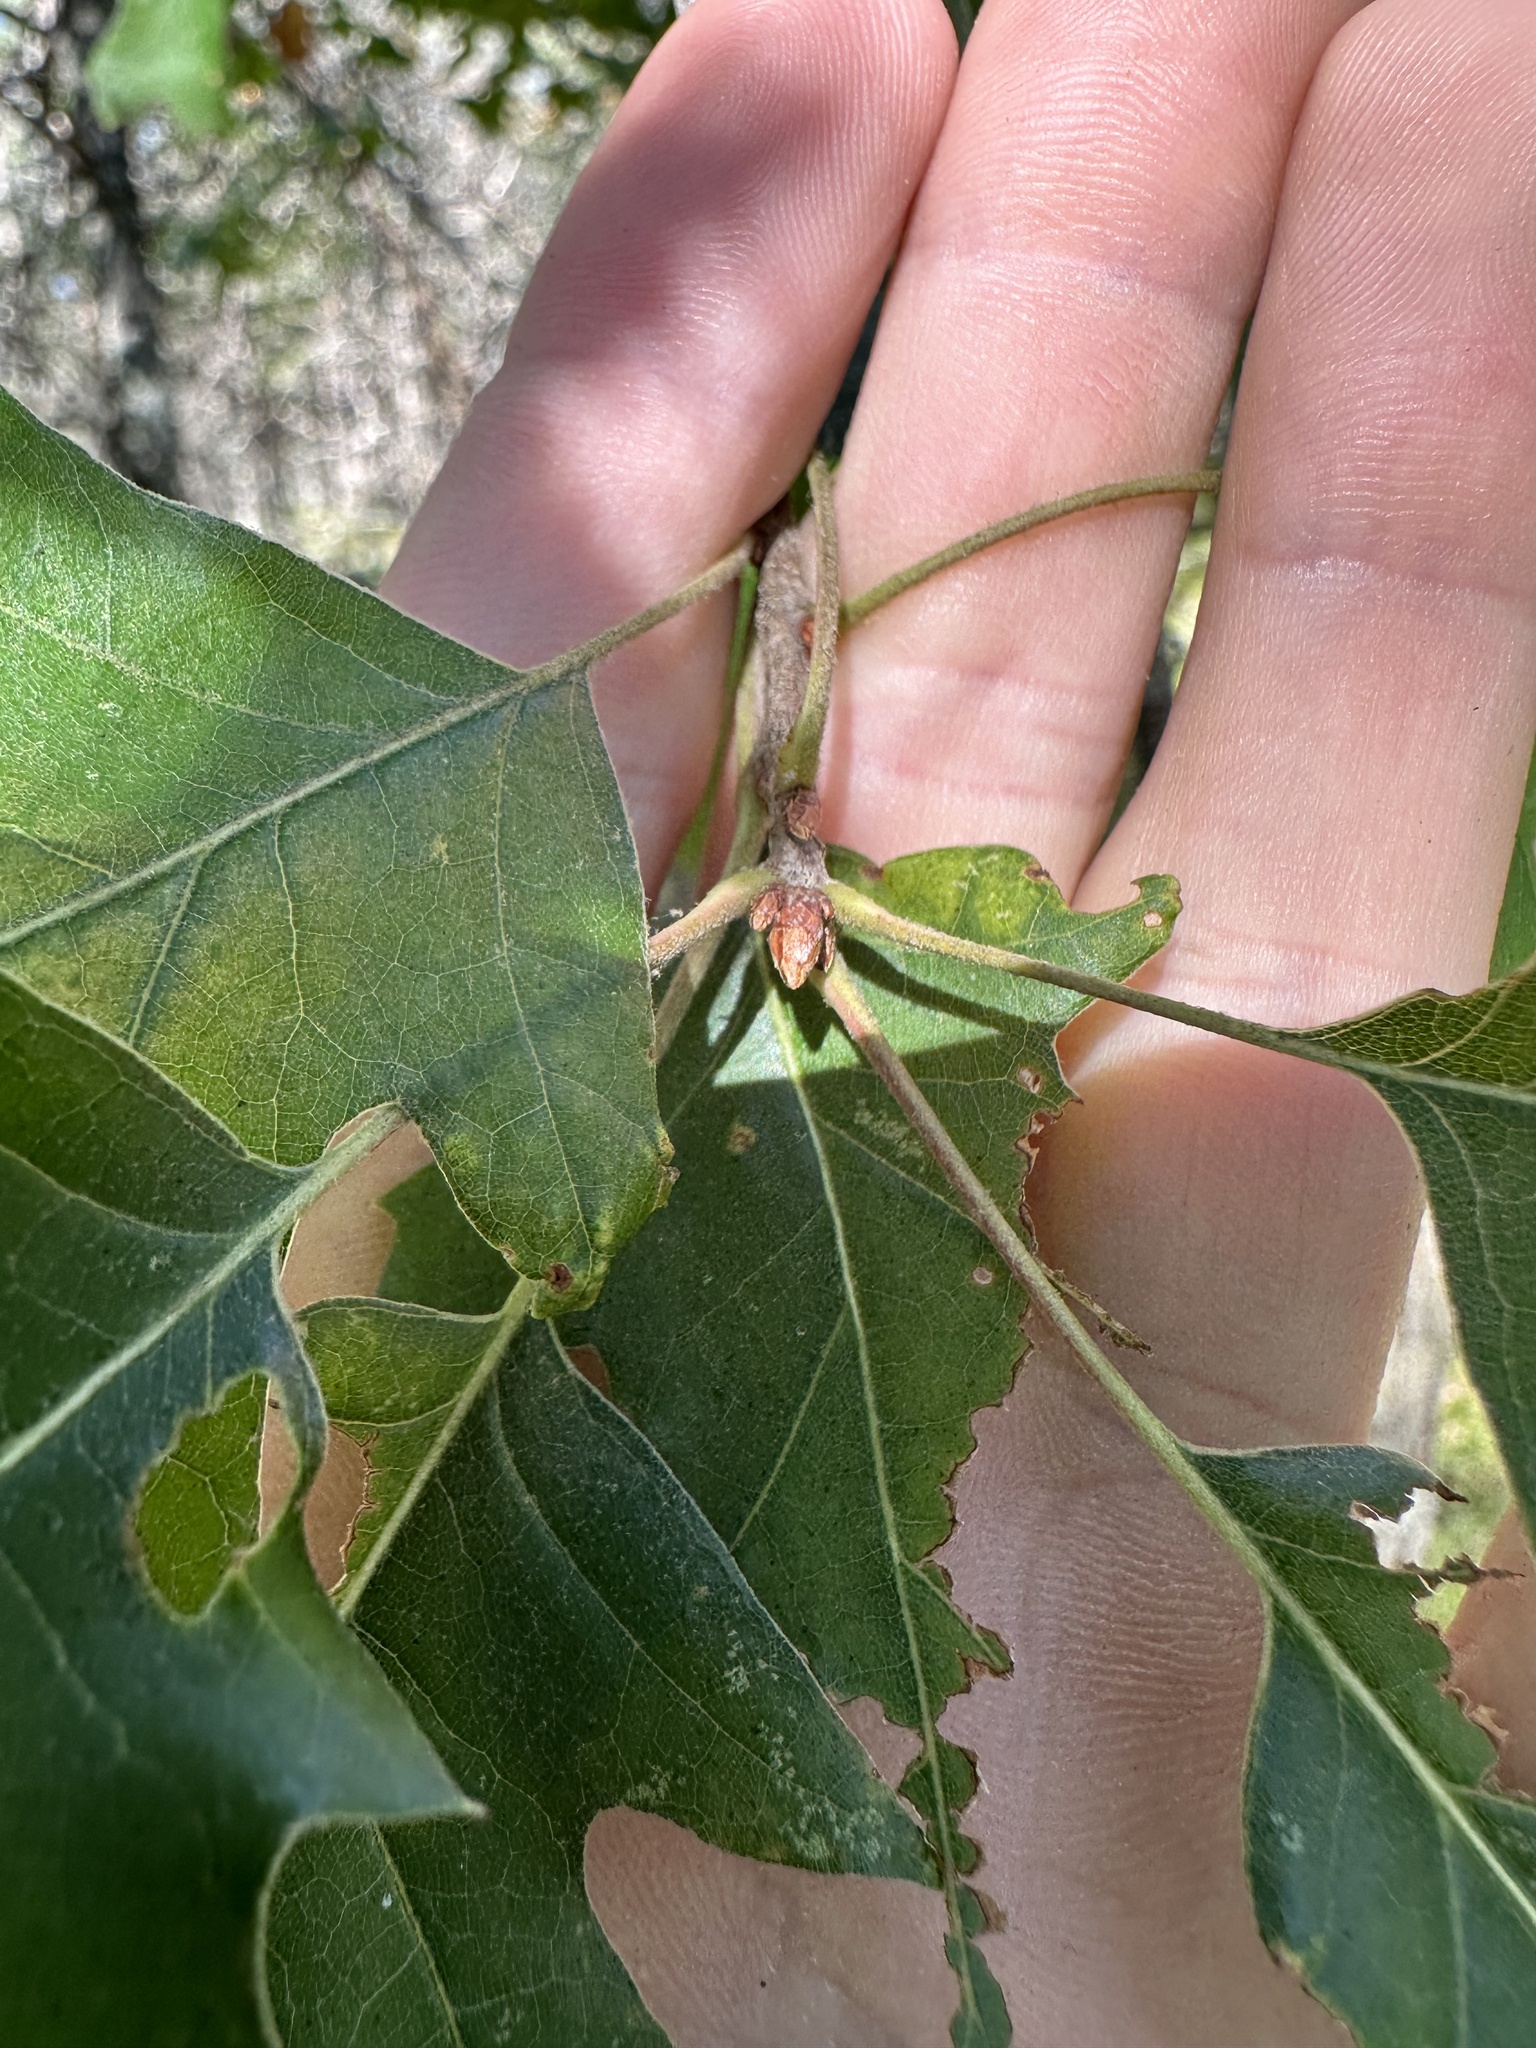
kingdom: Plantae
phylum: Tracheophyta
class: Magnoliopsida
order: Fagales
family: Fagaceae
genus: Quercus
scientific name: Quercus rubra
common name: Red oak
